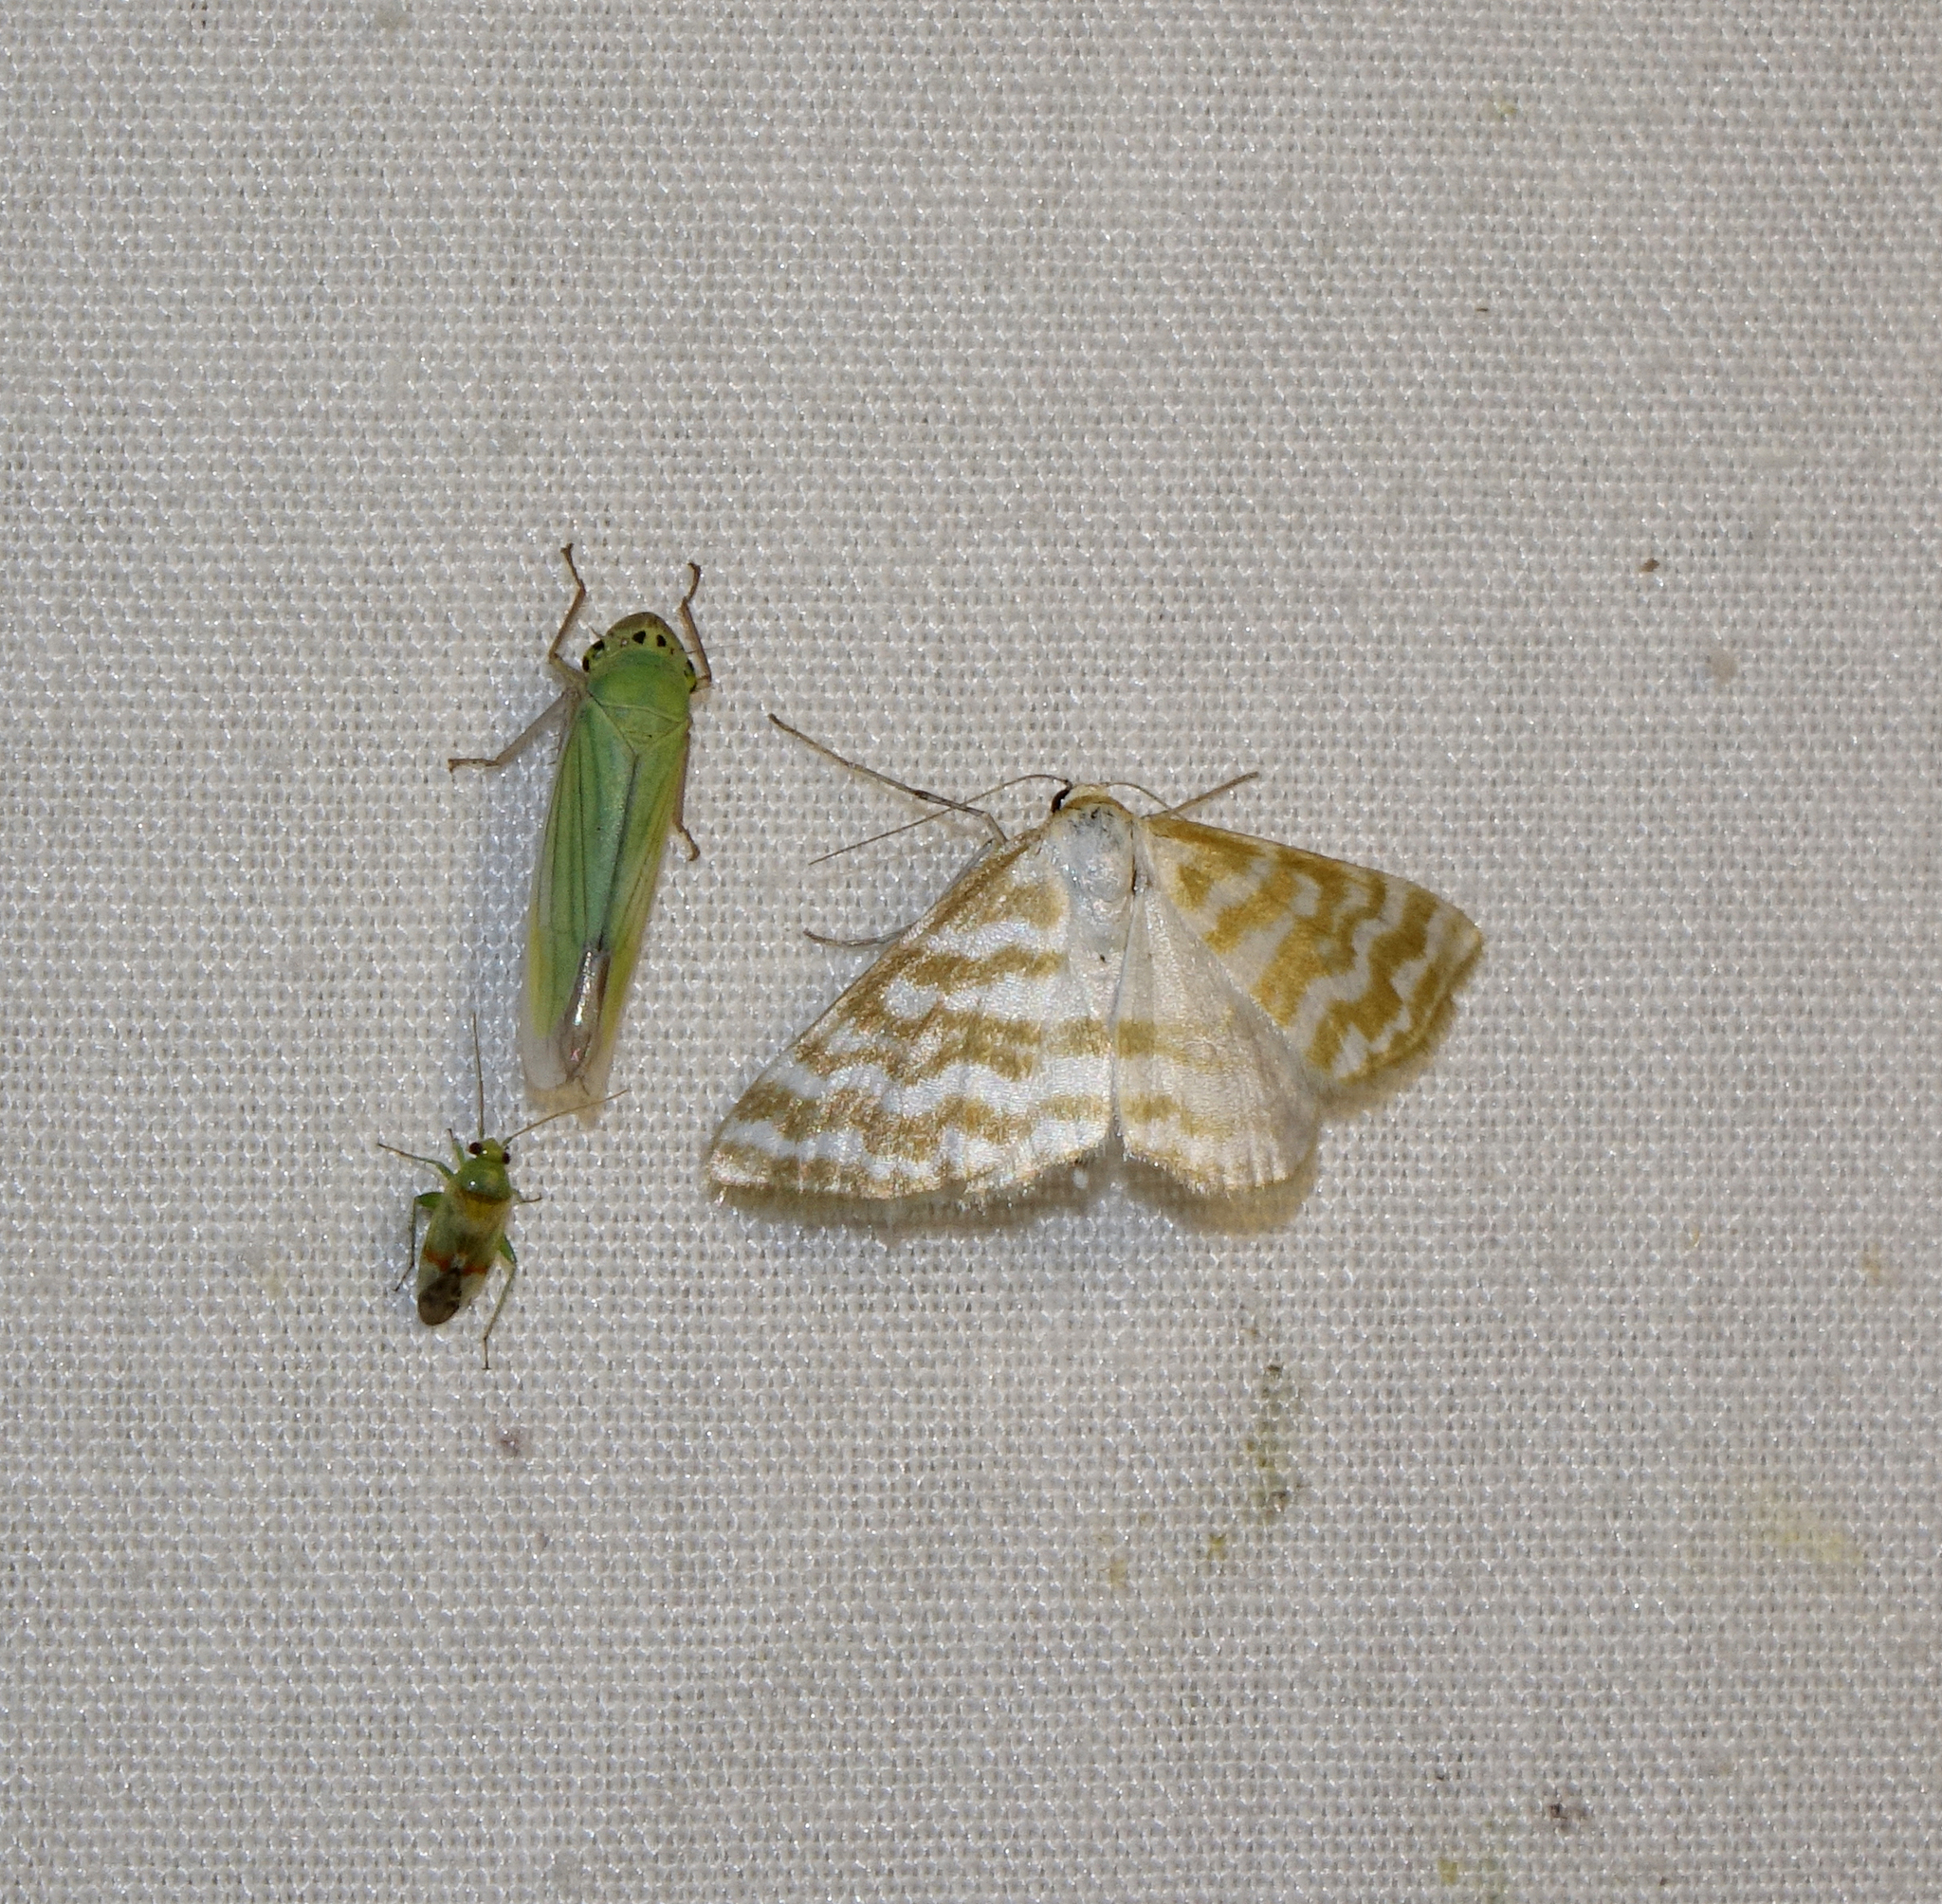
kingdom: Animalia
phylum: Arthropoda
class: Insecta
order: Lepidoptera
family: Geometridae
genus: Idaea
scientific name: Idaea sericeata
